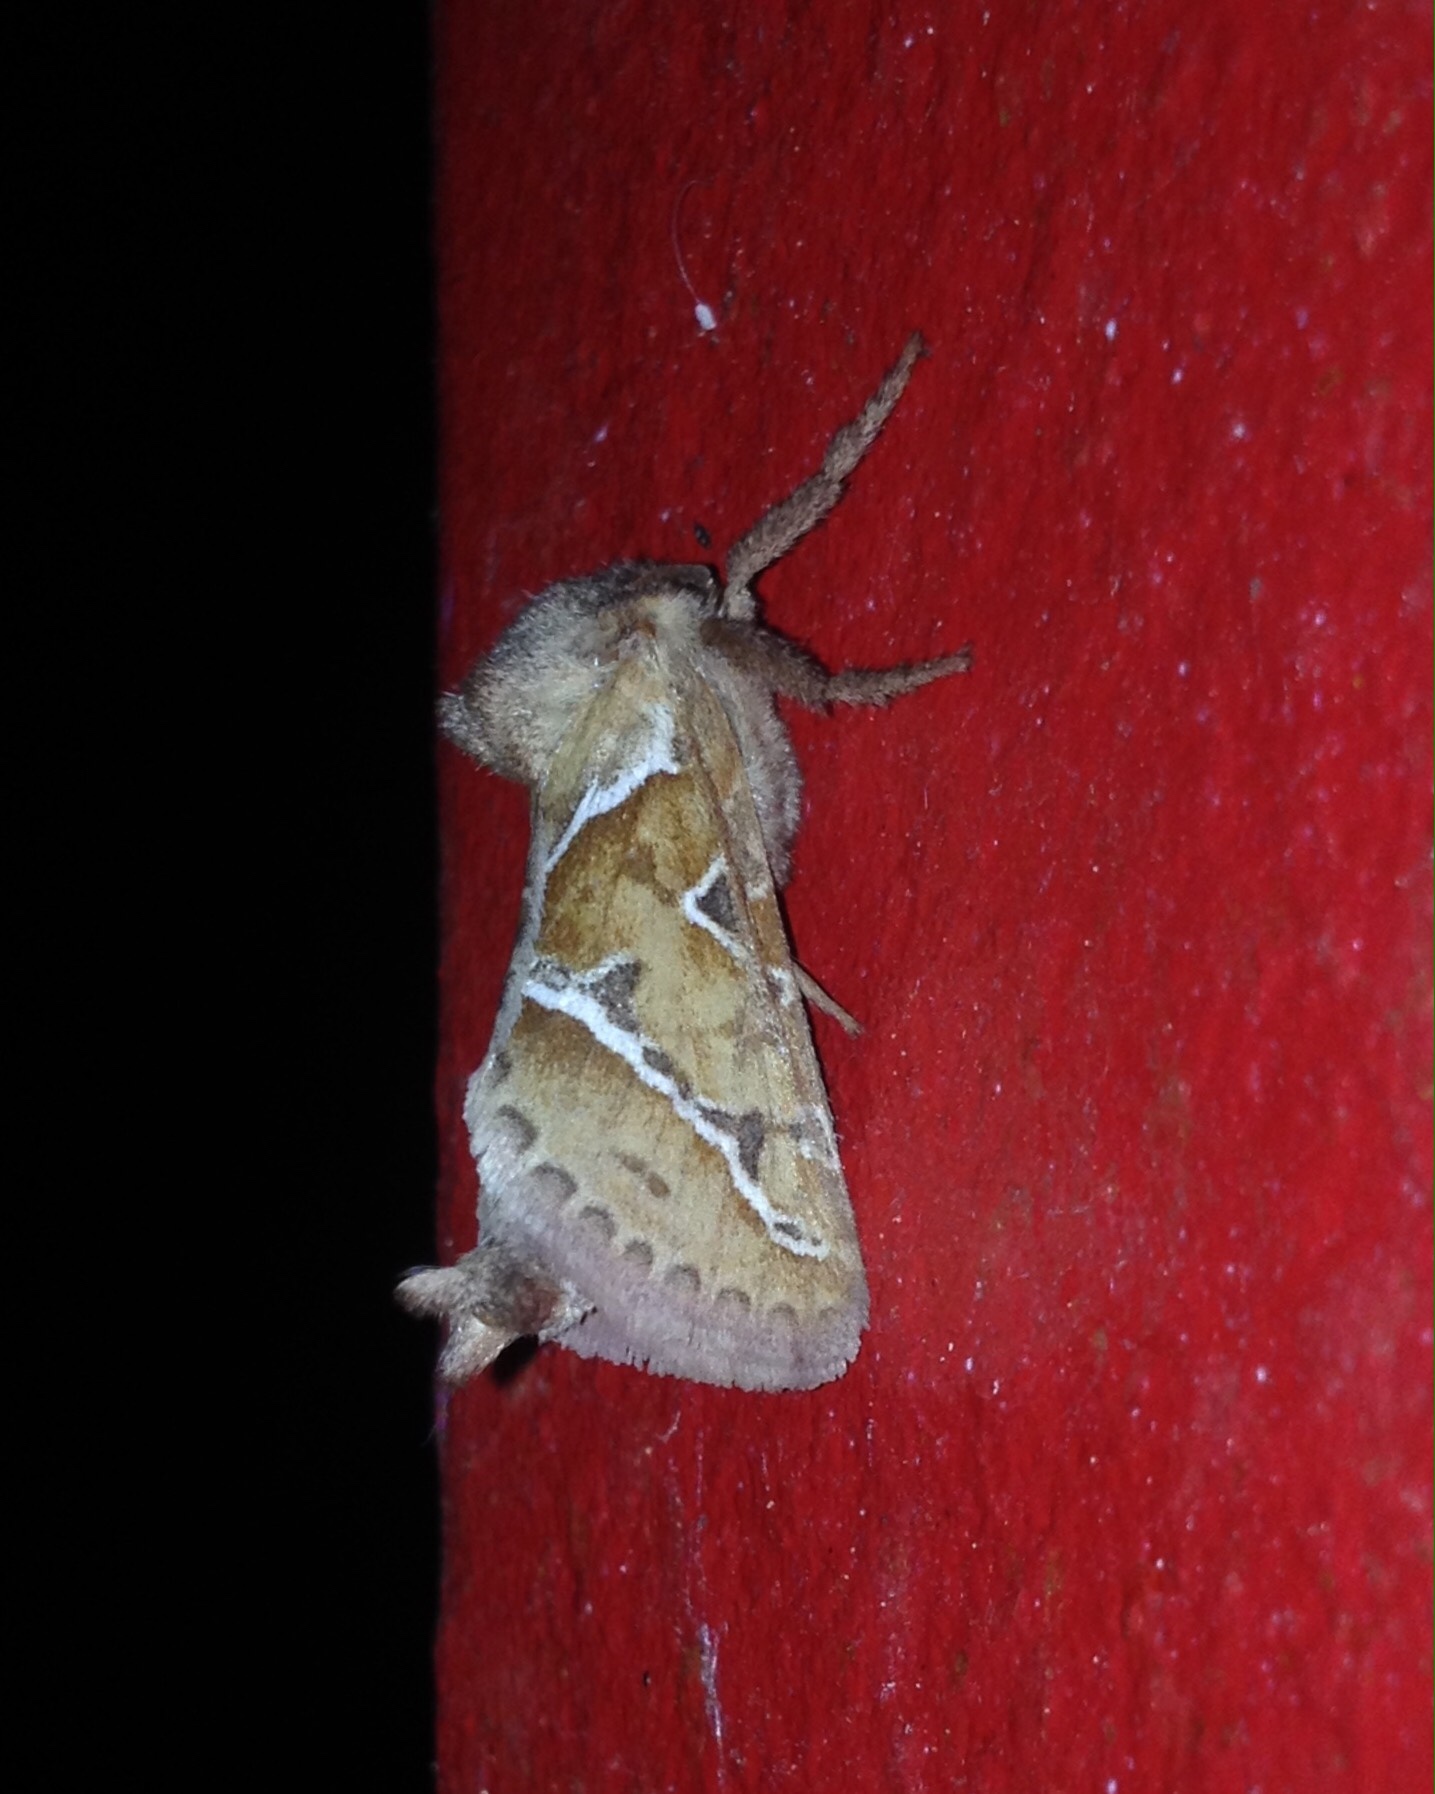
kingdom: Animalia
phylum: Arthropoda
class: Insecta
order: Lepidoptera
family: Hepialidae
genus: Triodia
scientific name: Triodia sylvina
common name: Orange swift
